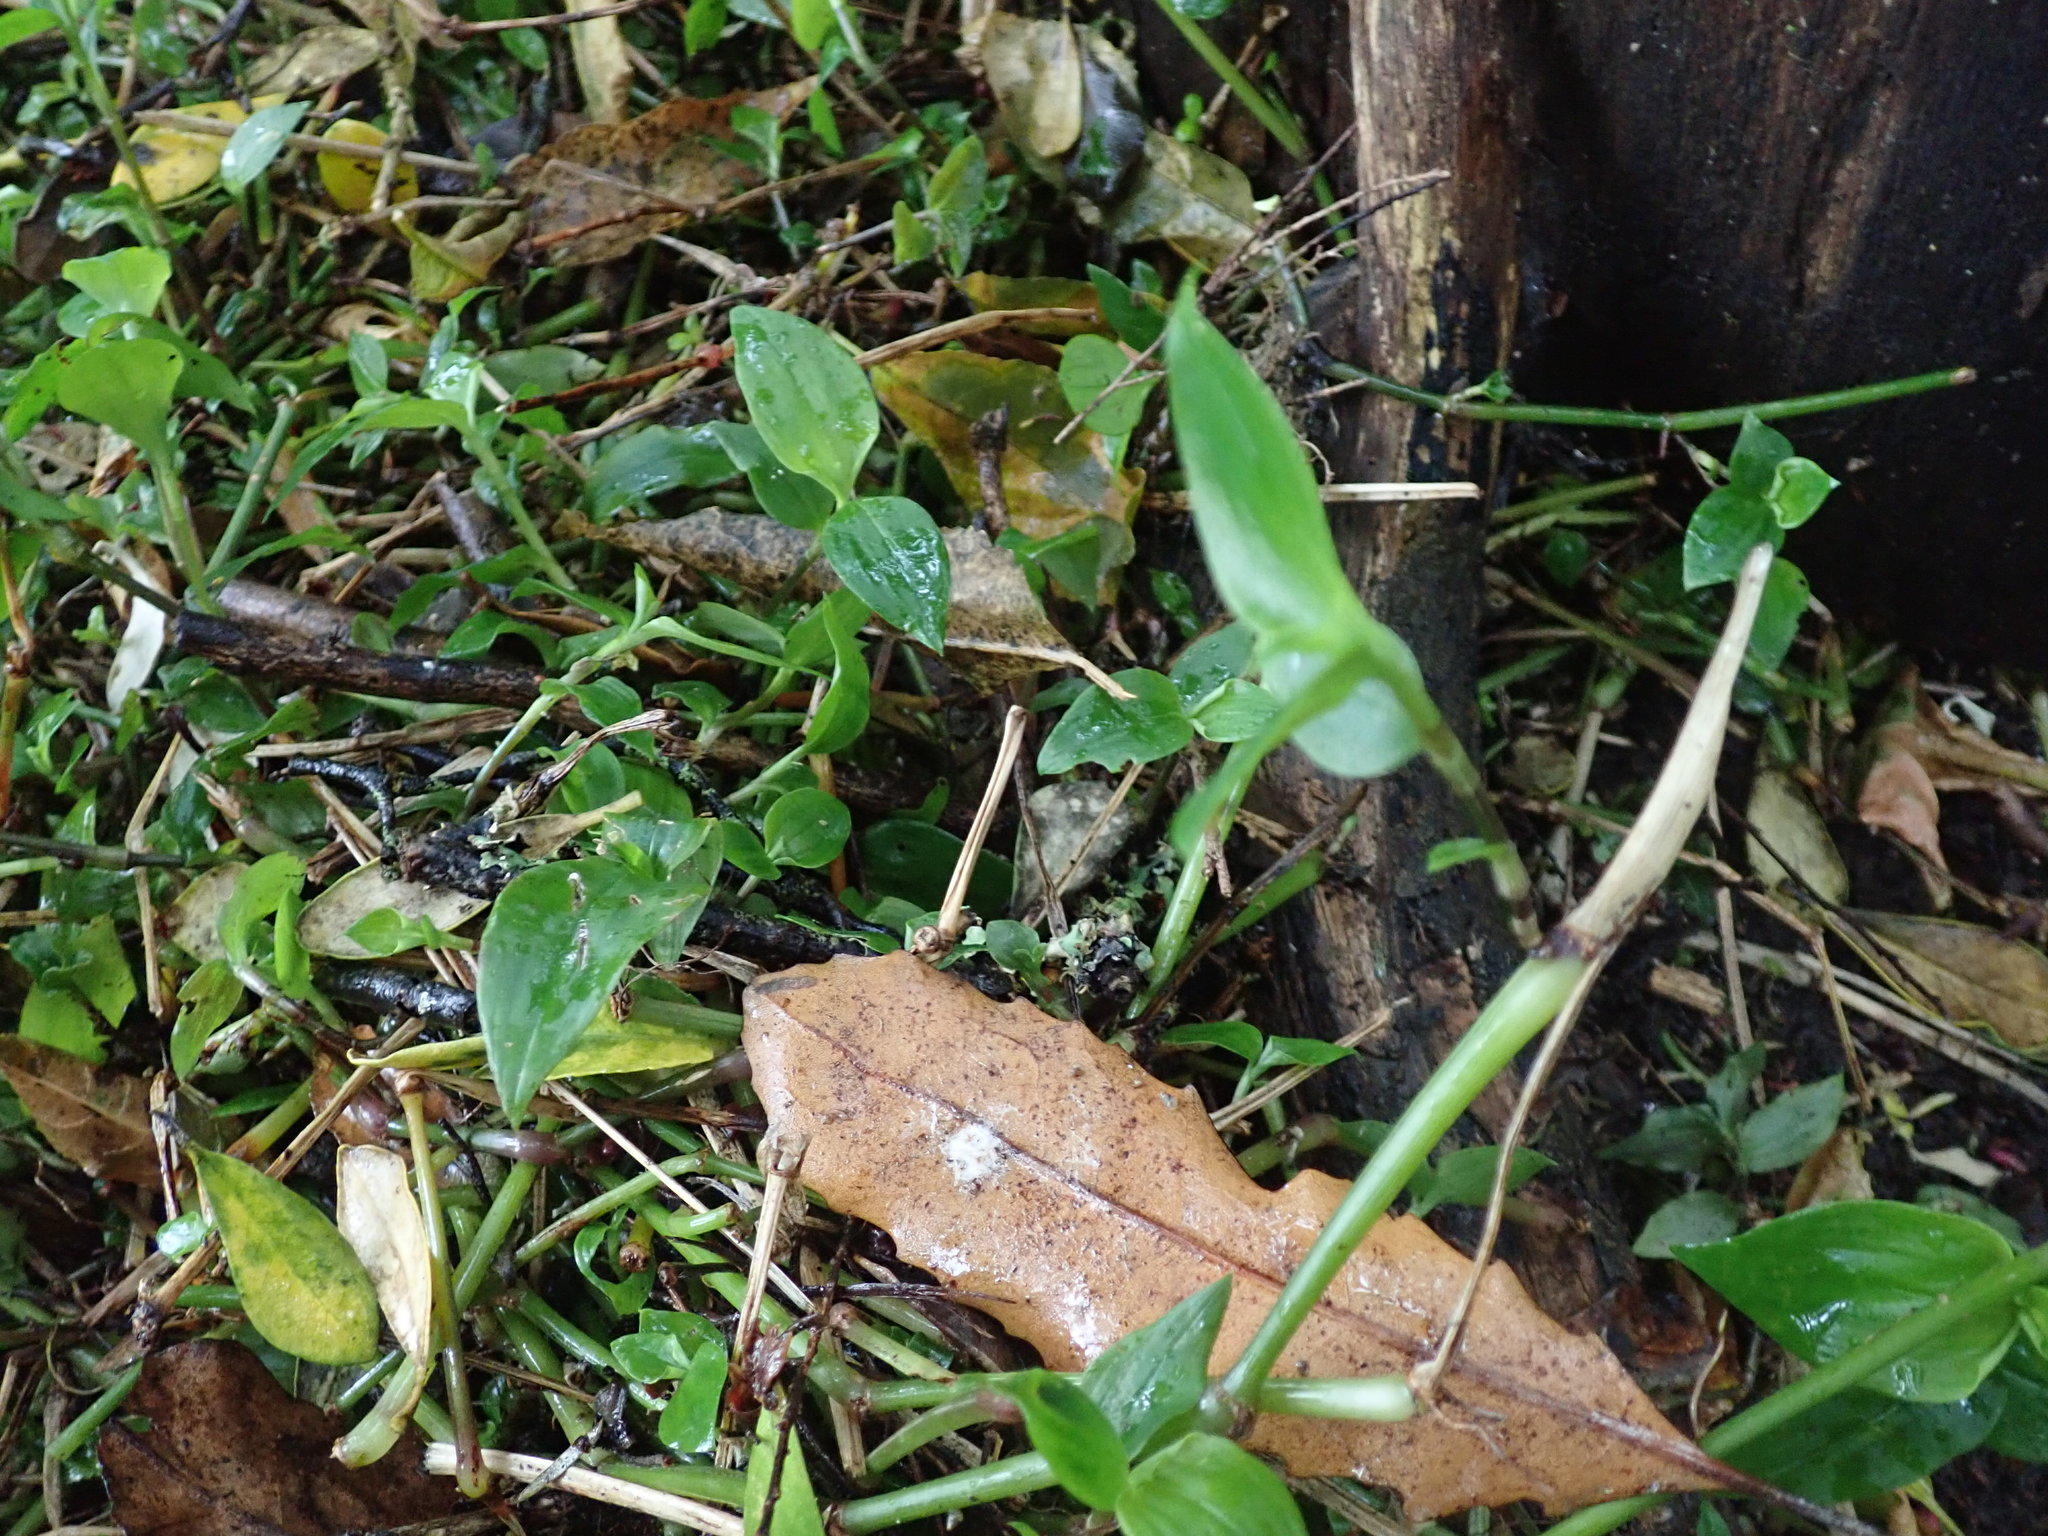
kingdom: Plantae
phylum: Tracheophyta
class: Liliopsida
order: Commelinales
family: Commelinaceae
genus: Tradescantia
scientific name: Tradescantia fluminensis
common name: Wandering-jew
